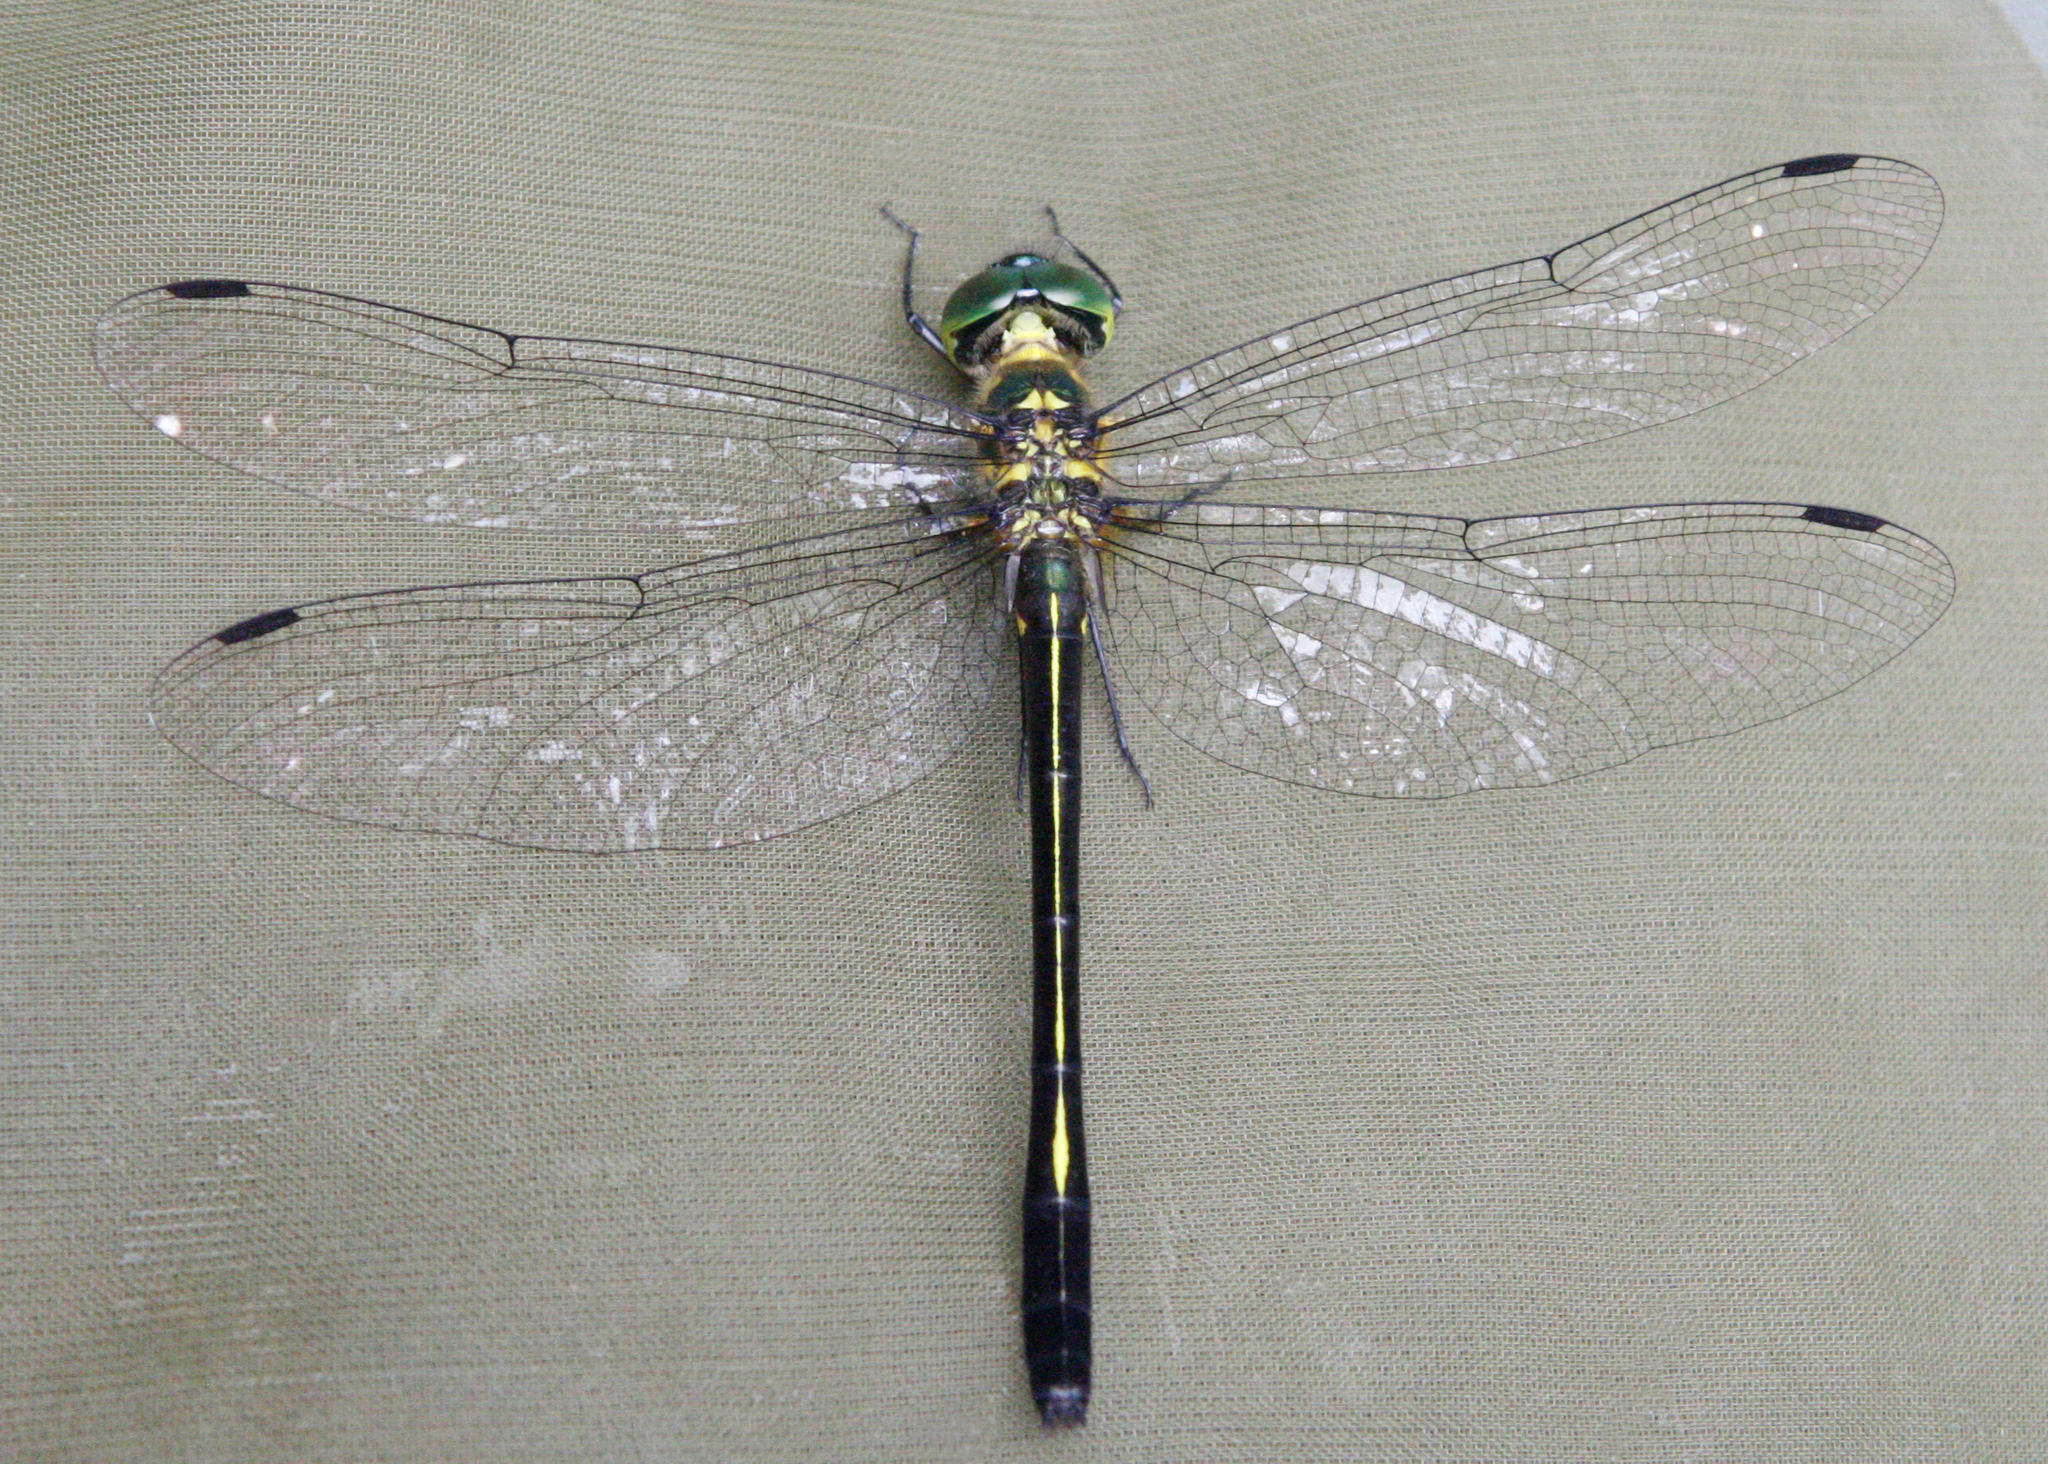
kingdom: Animalia
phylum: Arthropoda
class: Insecta
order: Odonata
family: Corduliidae
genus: Macromidia
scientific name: Macromidia genialis
